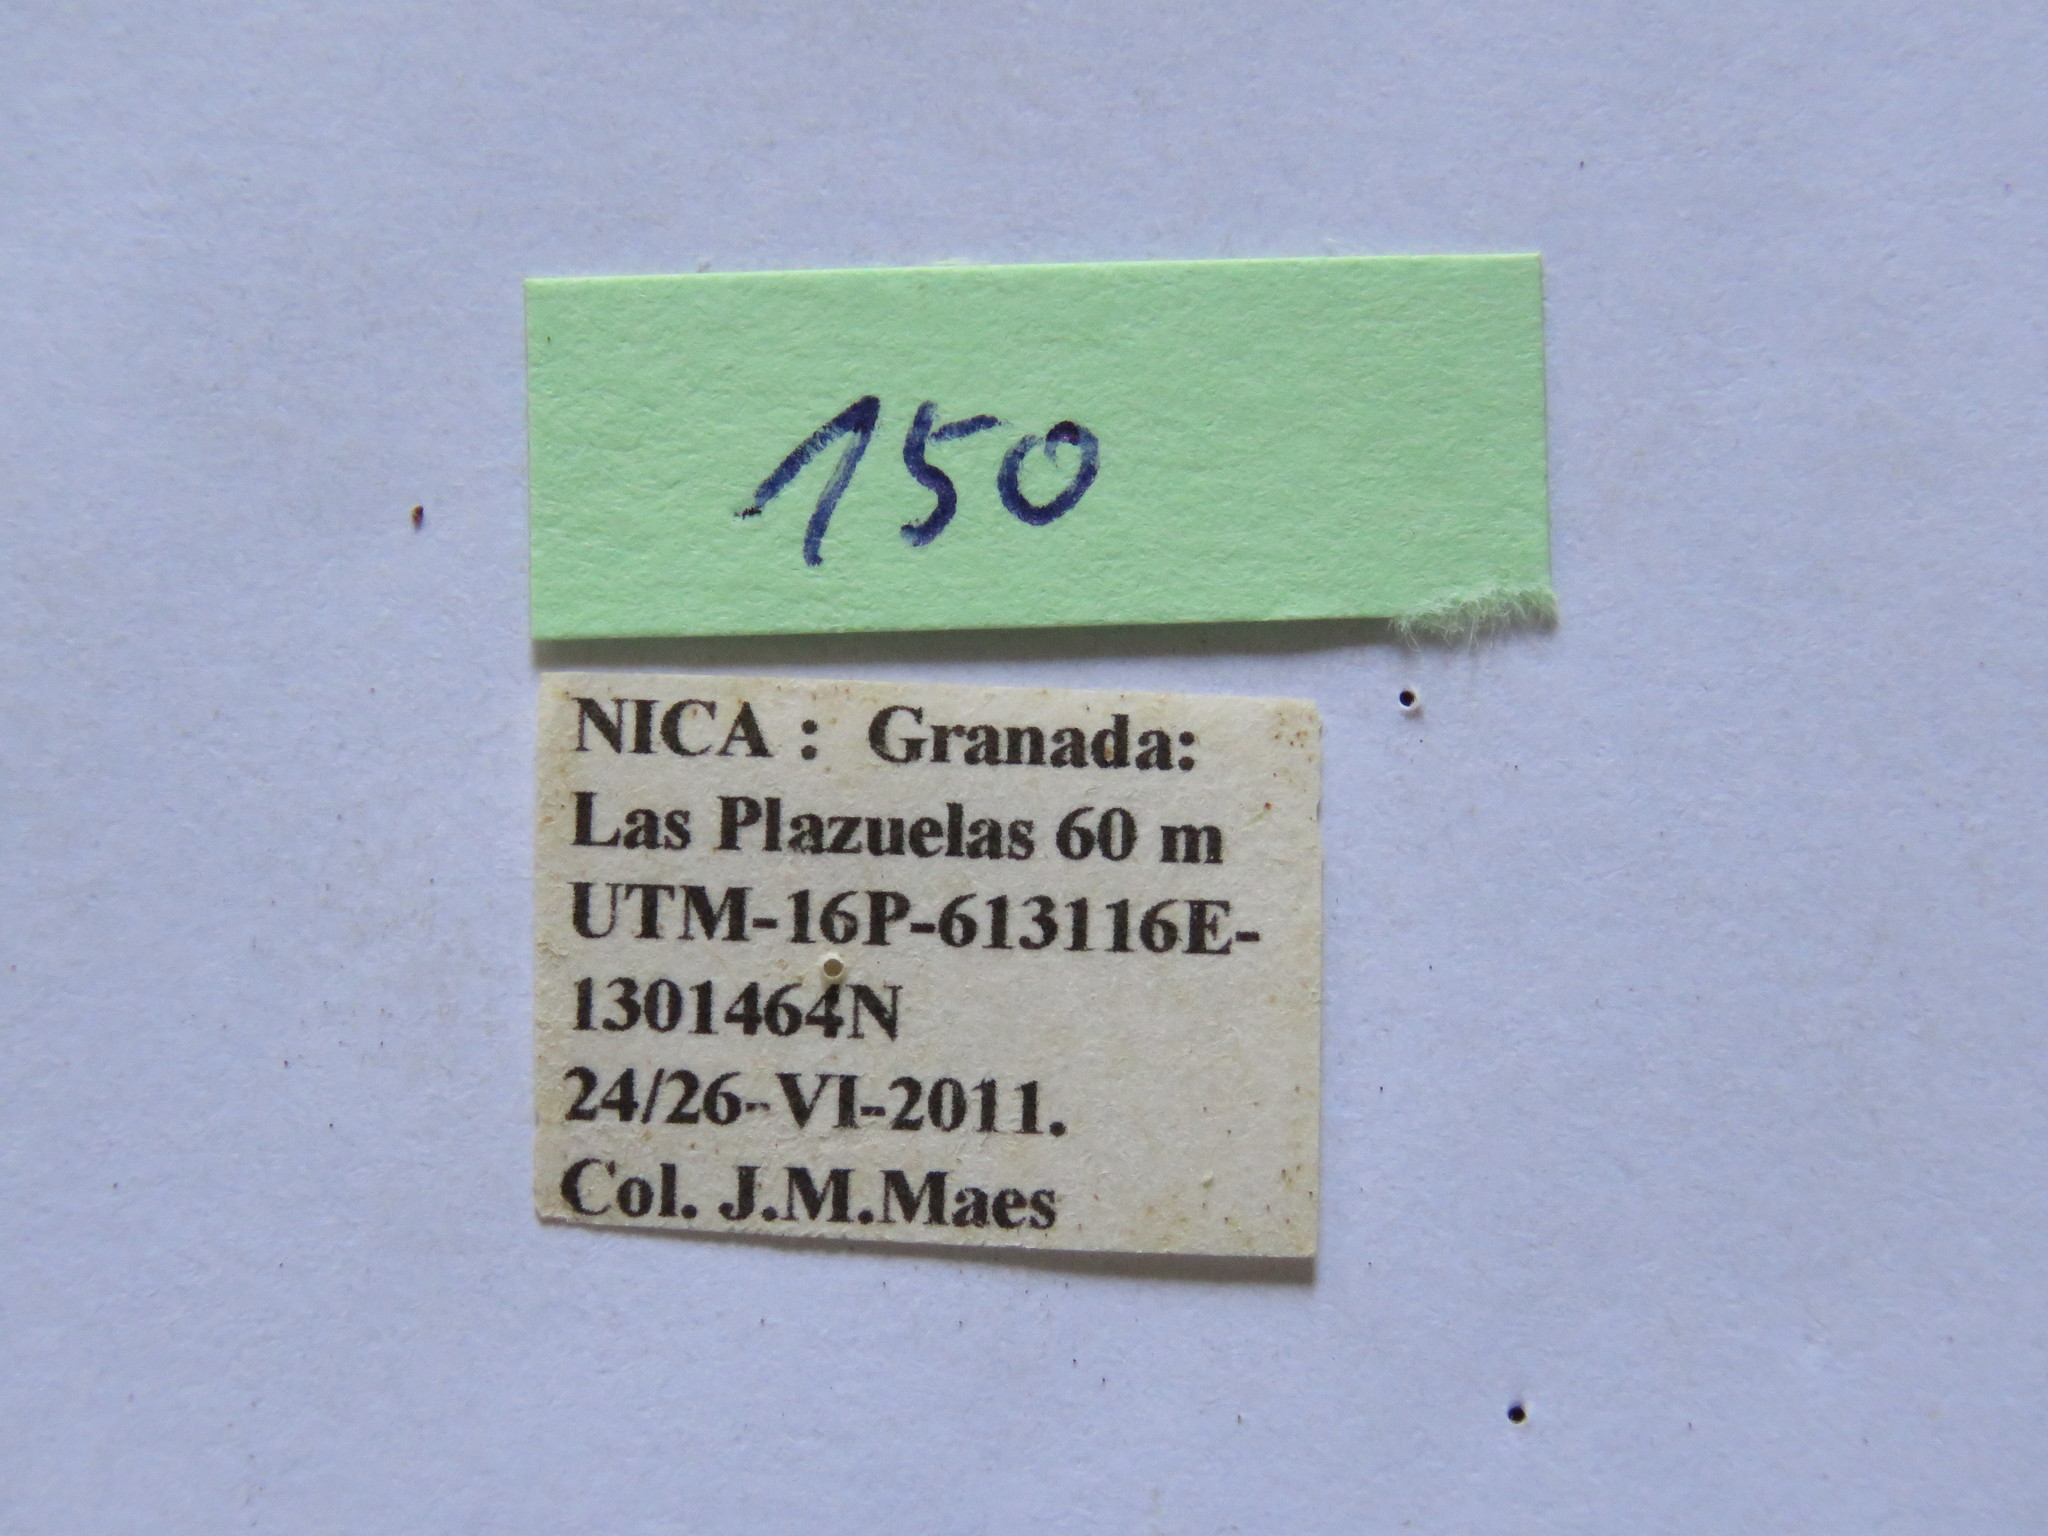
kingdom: Animalia
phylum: Arthropoda
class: Insecta
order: Hemiptera
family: Coreidae
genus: Pachylis
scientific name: Pachylis nervosus
